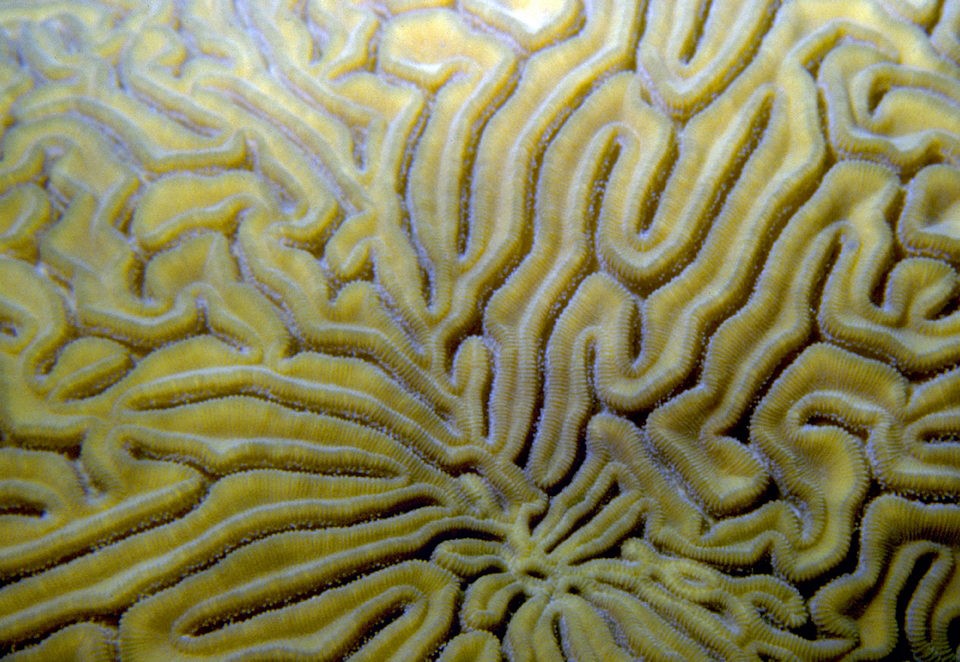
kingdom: Animalia
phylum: Cnidaria
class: Anthozoa
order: Scleractinia
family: Faviidae
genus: Diploria
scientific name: Diploria labyrinthiformis
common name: Grooved brain coral
